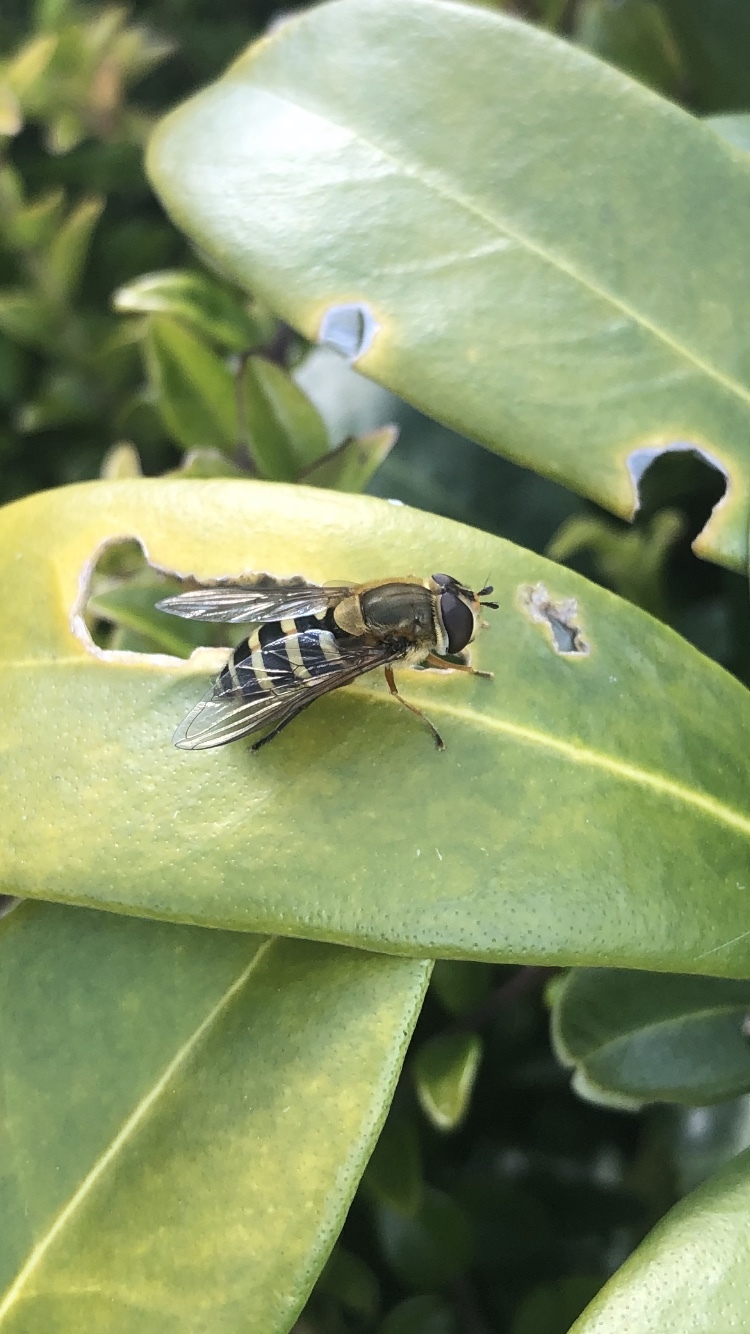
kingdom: Animalia
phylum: Arthropoda
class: Insecta
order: Diptera
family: Syrphidae
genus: Syrphus
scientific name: Syrphus ribesii
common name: Common flower fly
